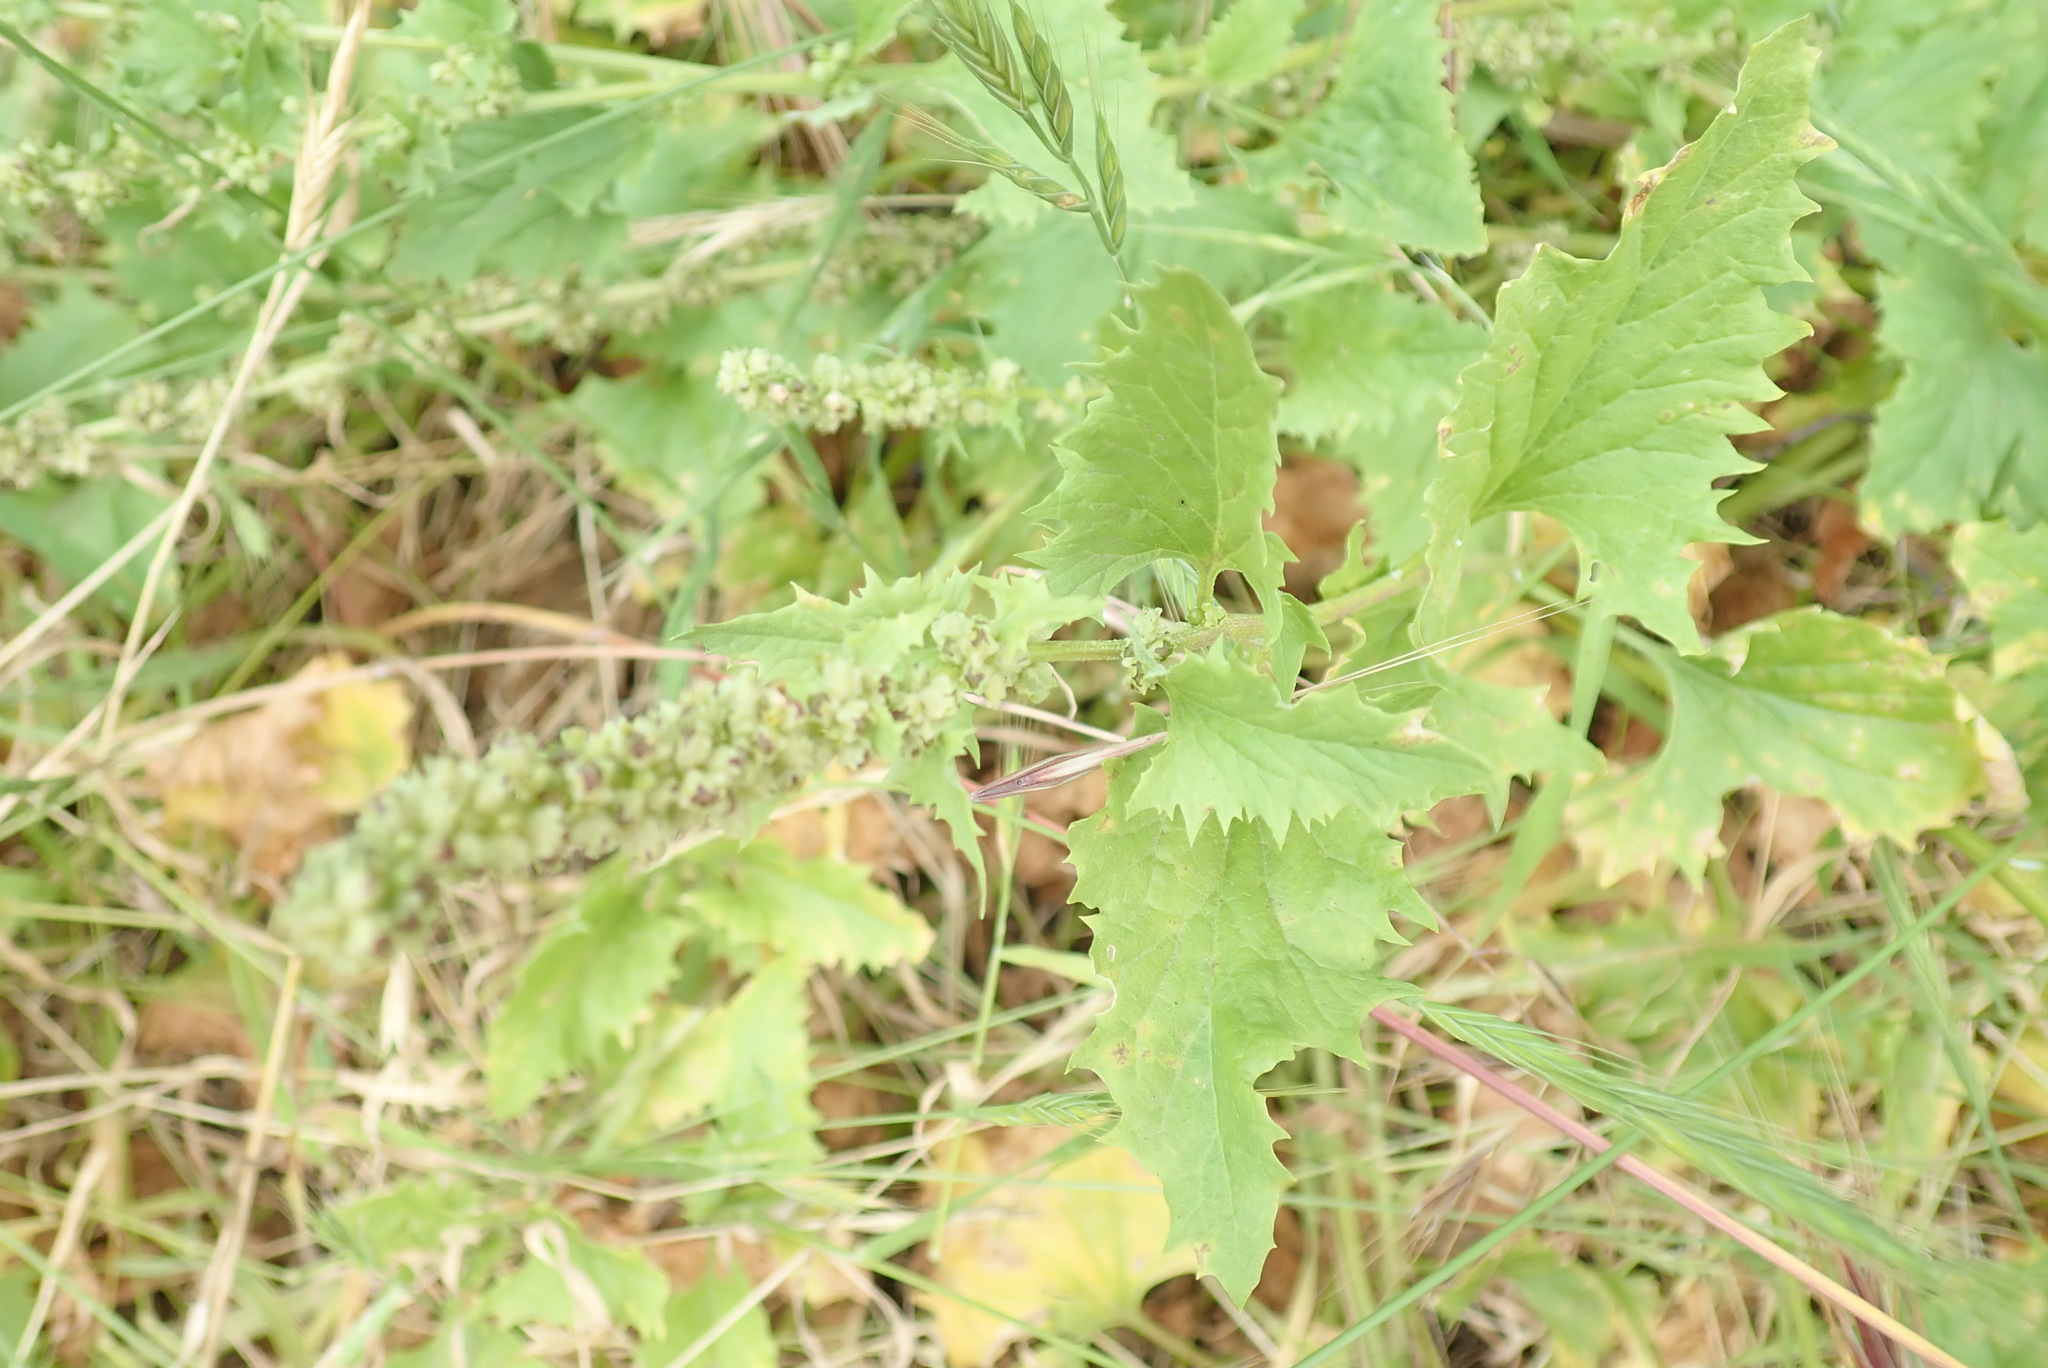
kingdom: Plantae
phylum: Tracheophyta
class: Magnoliopsida
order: Caryophyllales
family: Amaranthaceae
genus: Blitum
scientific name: Blitum californicum
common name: California goosefoot
